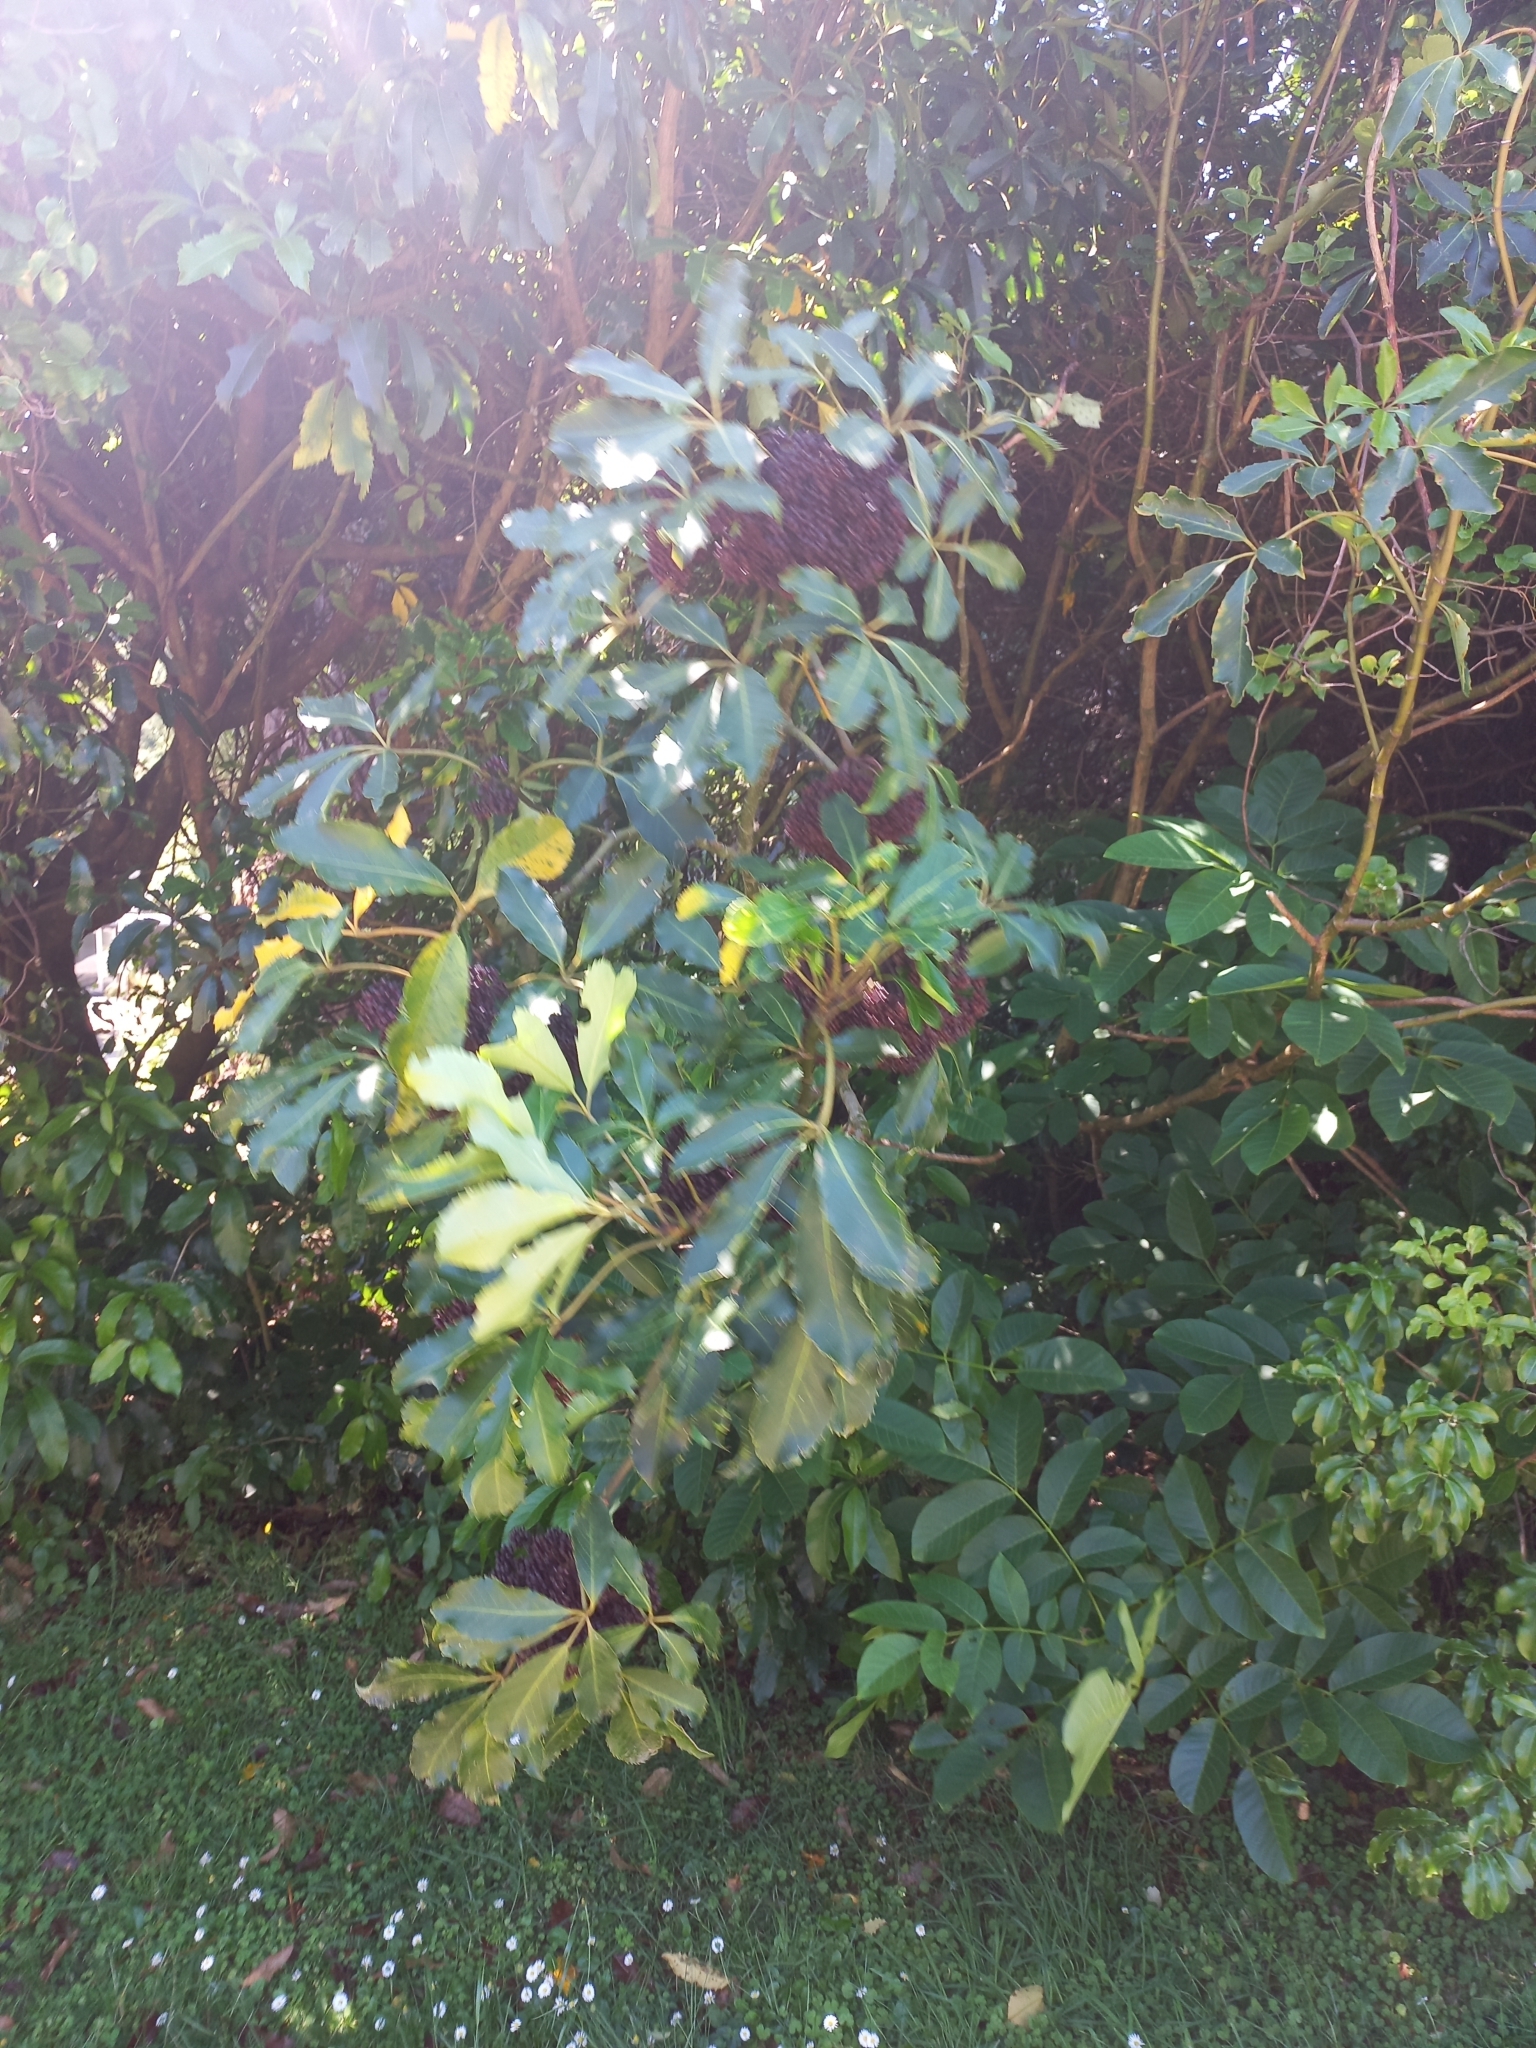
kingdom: Plantae
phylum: Tracheophyta
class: Magnoliopsida
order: Apiales
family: Araliaceae
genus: Neopanax
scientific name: Neopanax arboreus
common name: Five-fingers
